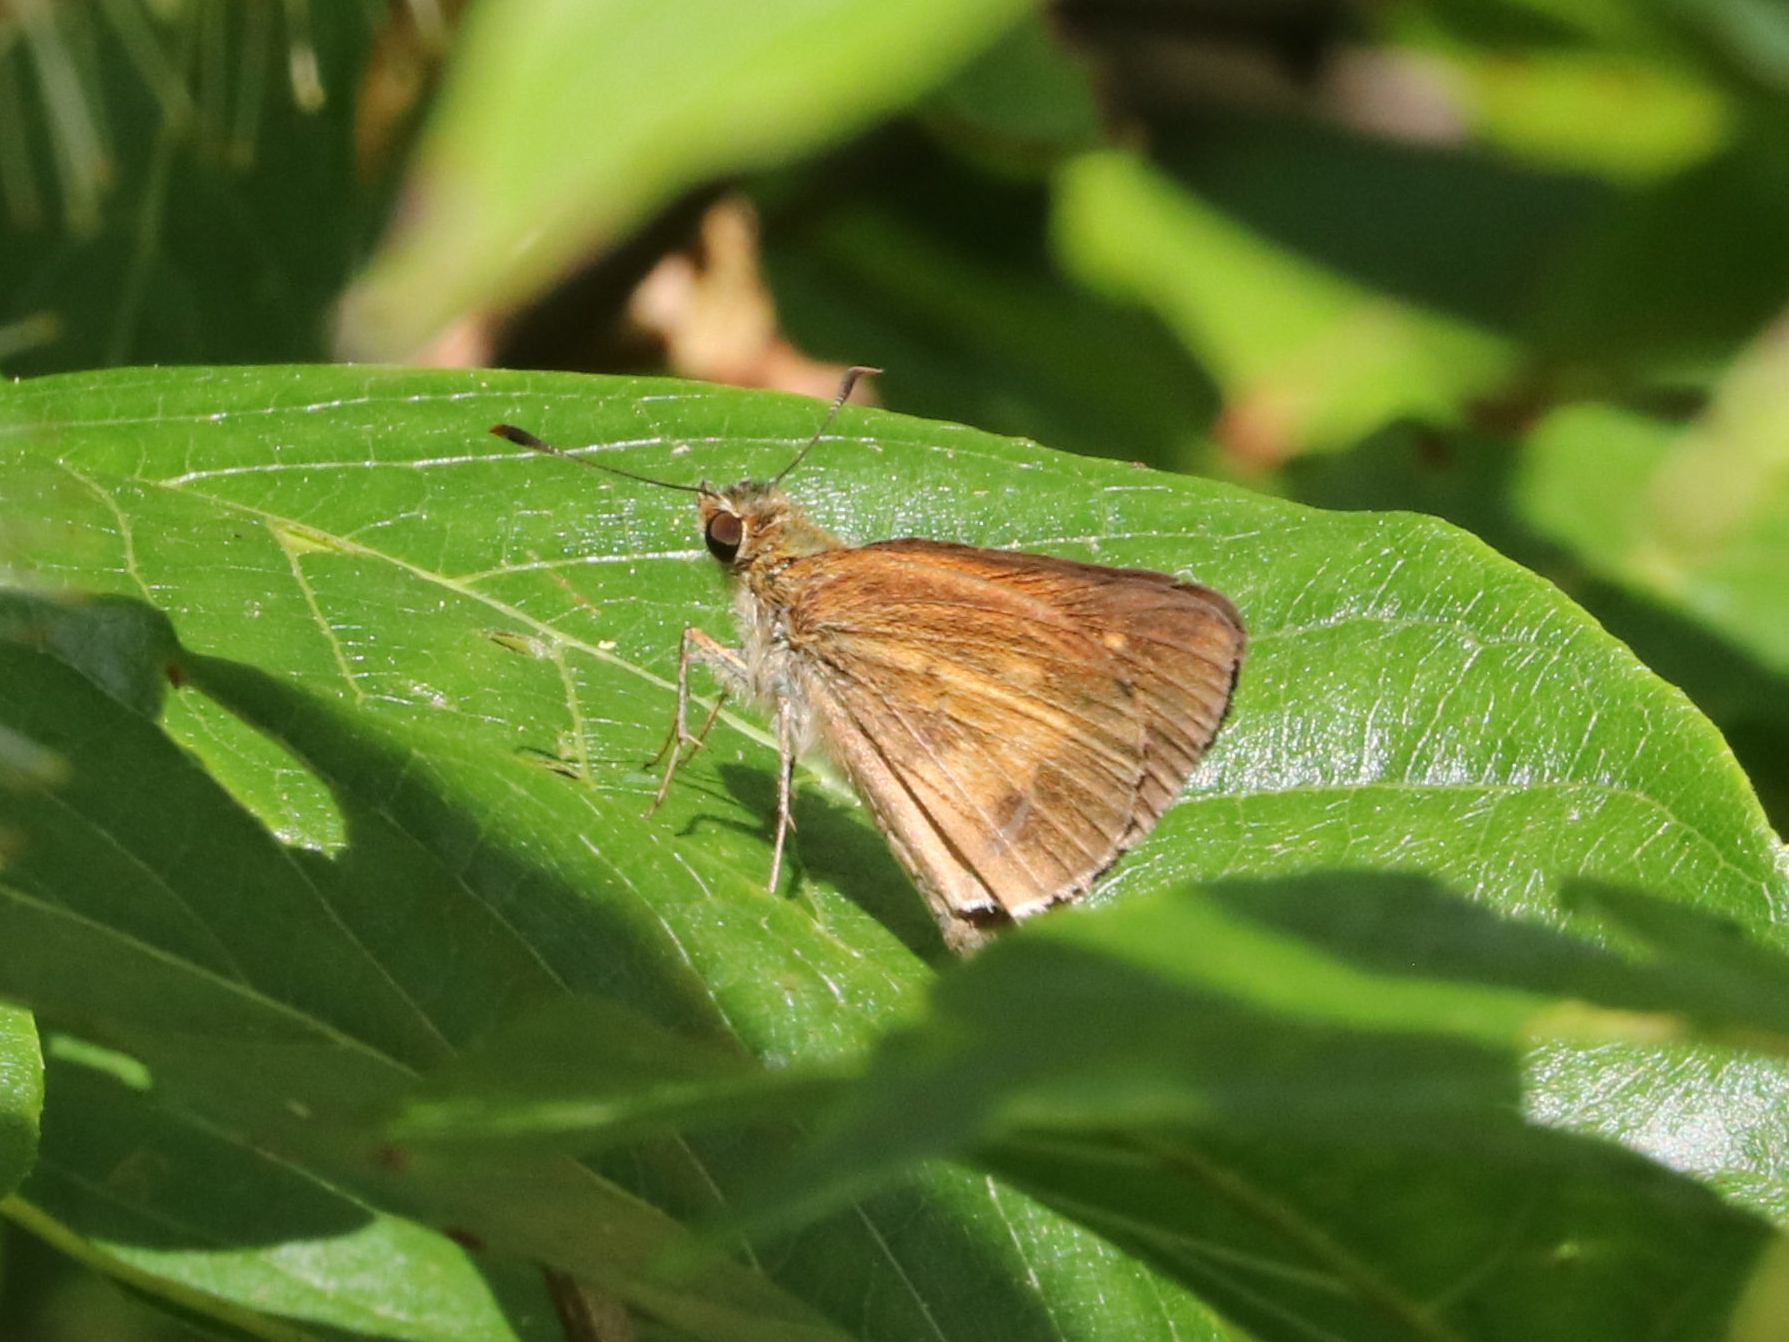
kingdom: Animalia
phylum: Arthropoda
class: Insecta
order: Lepidoptera
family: Hesperiidae
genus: Poanes
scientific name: Poanes viator
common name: Broad-winged skipper
